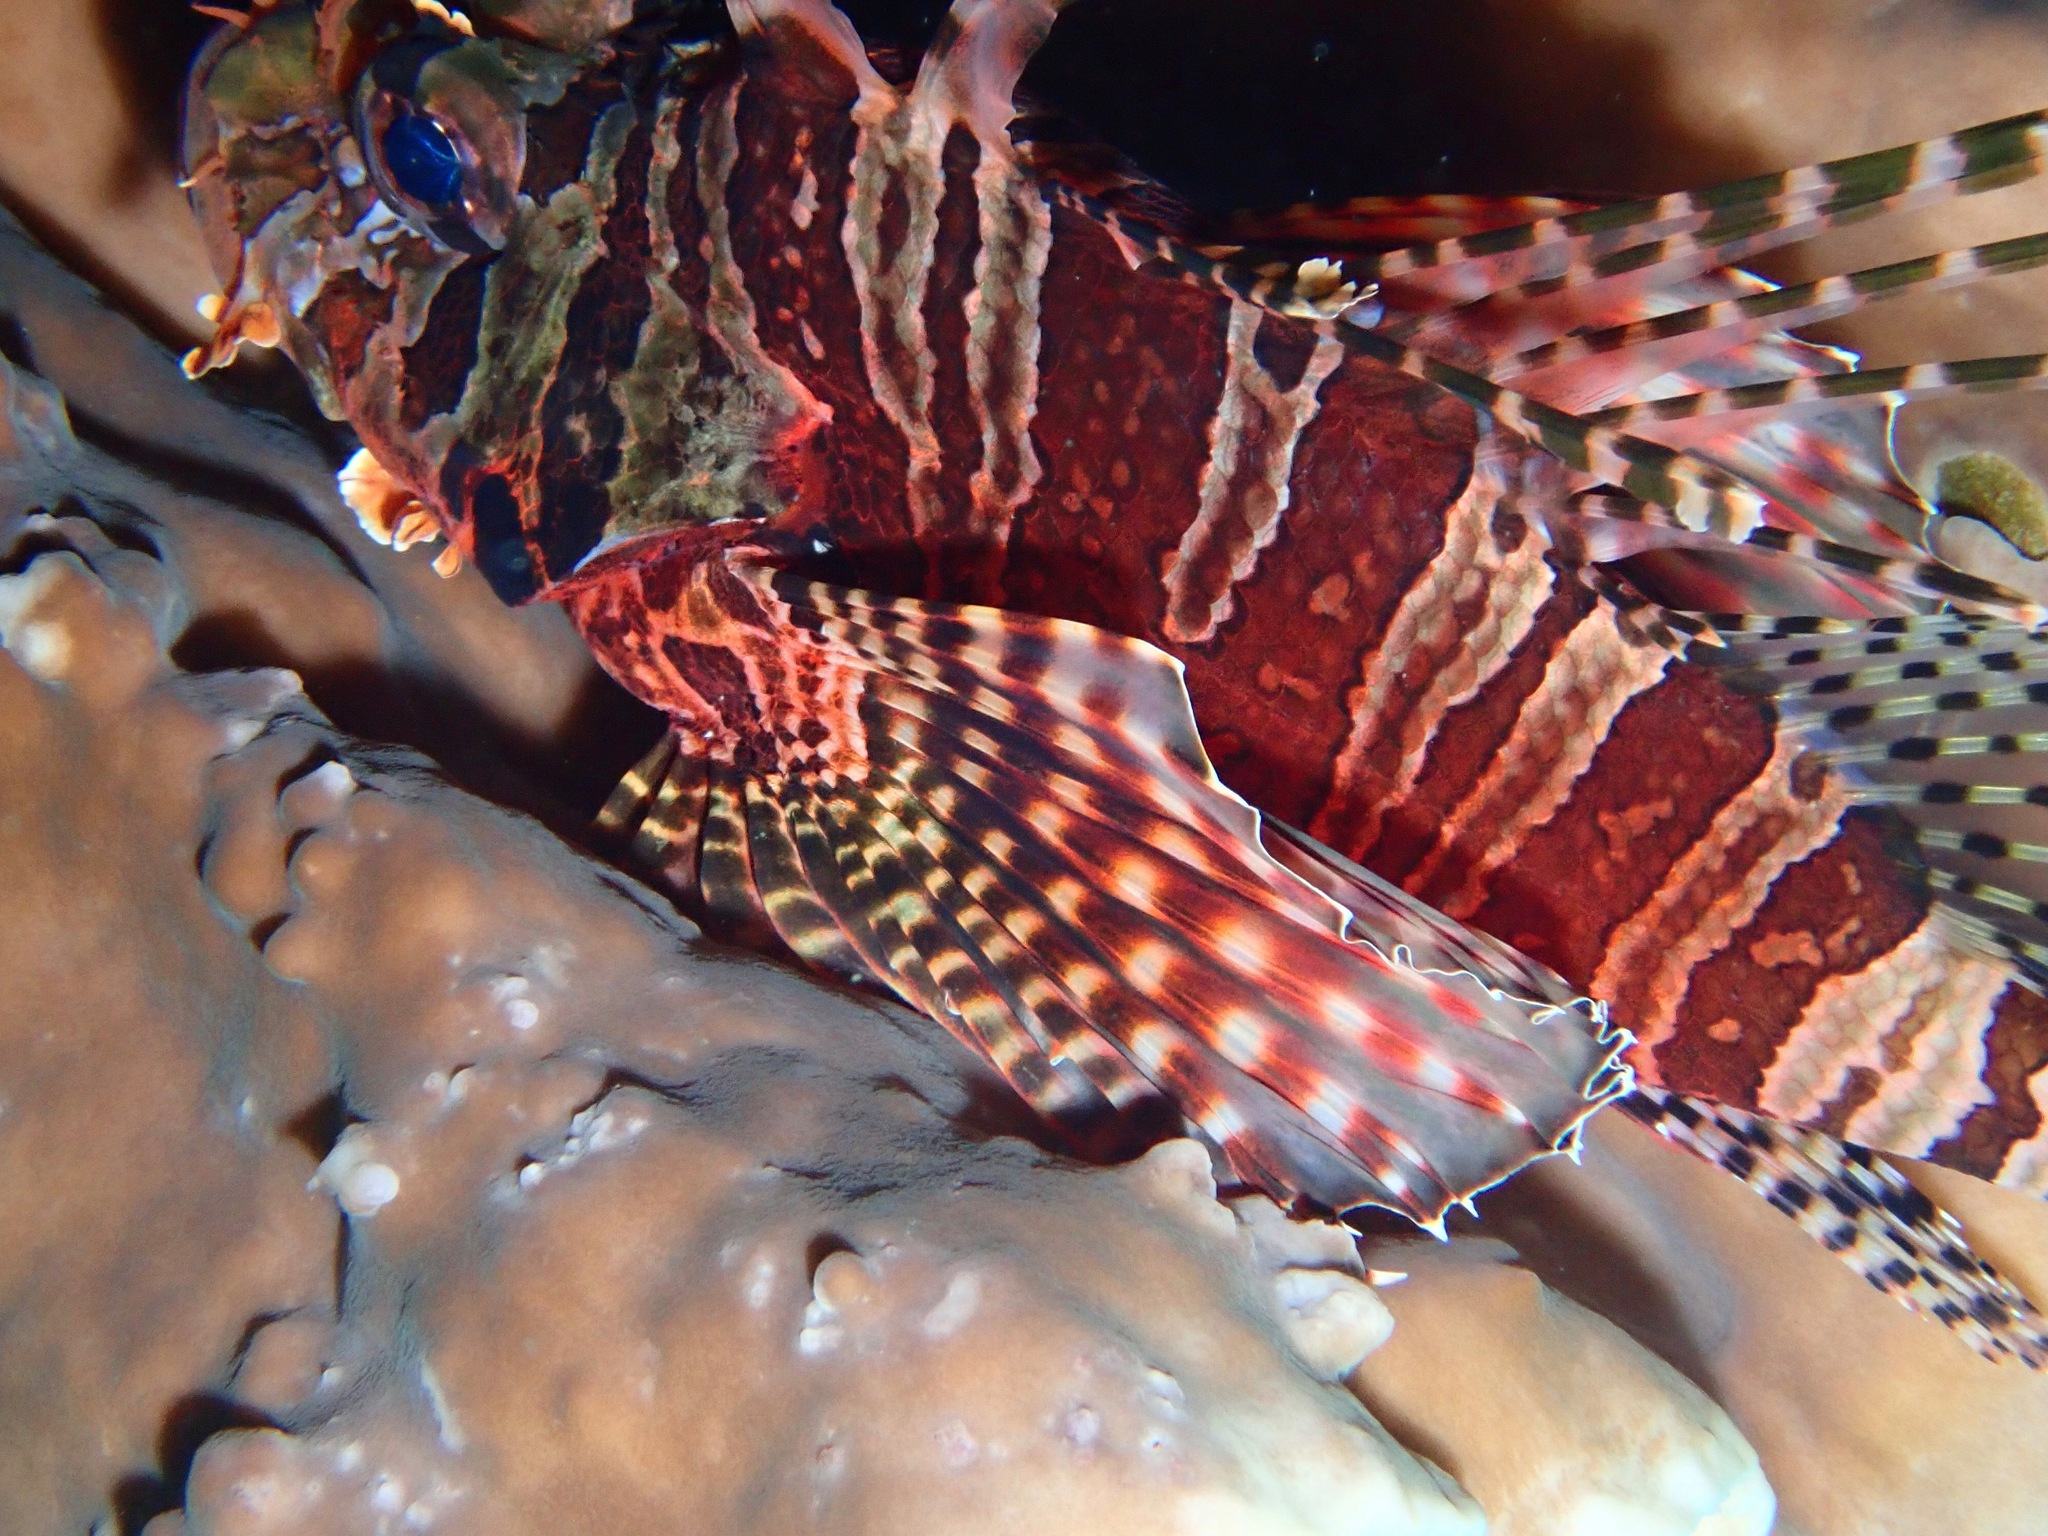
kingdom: Animalia
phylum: Chordata
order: Scorpaeniformes
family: Scorpaenidae
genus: Dendrochirus
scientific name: Dendrochirus zebra
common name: Zebra lionfish
